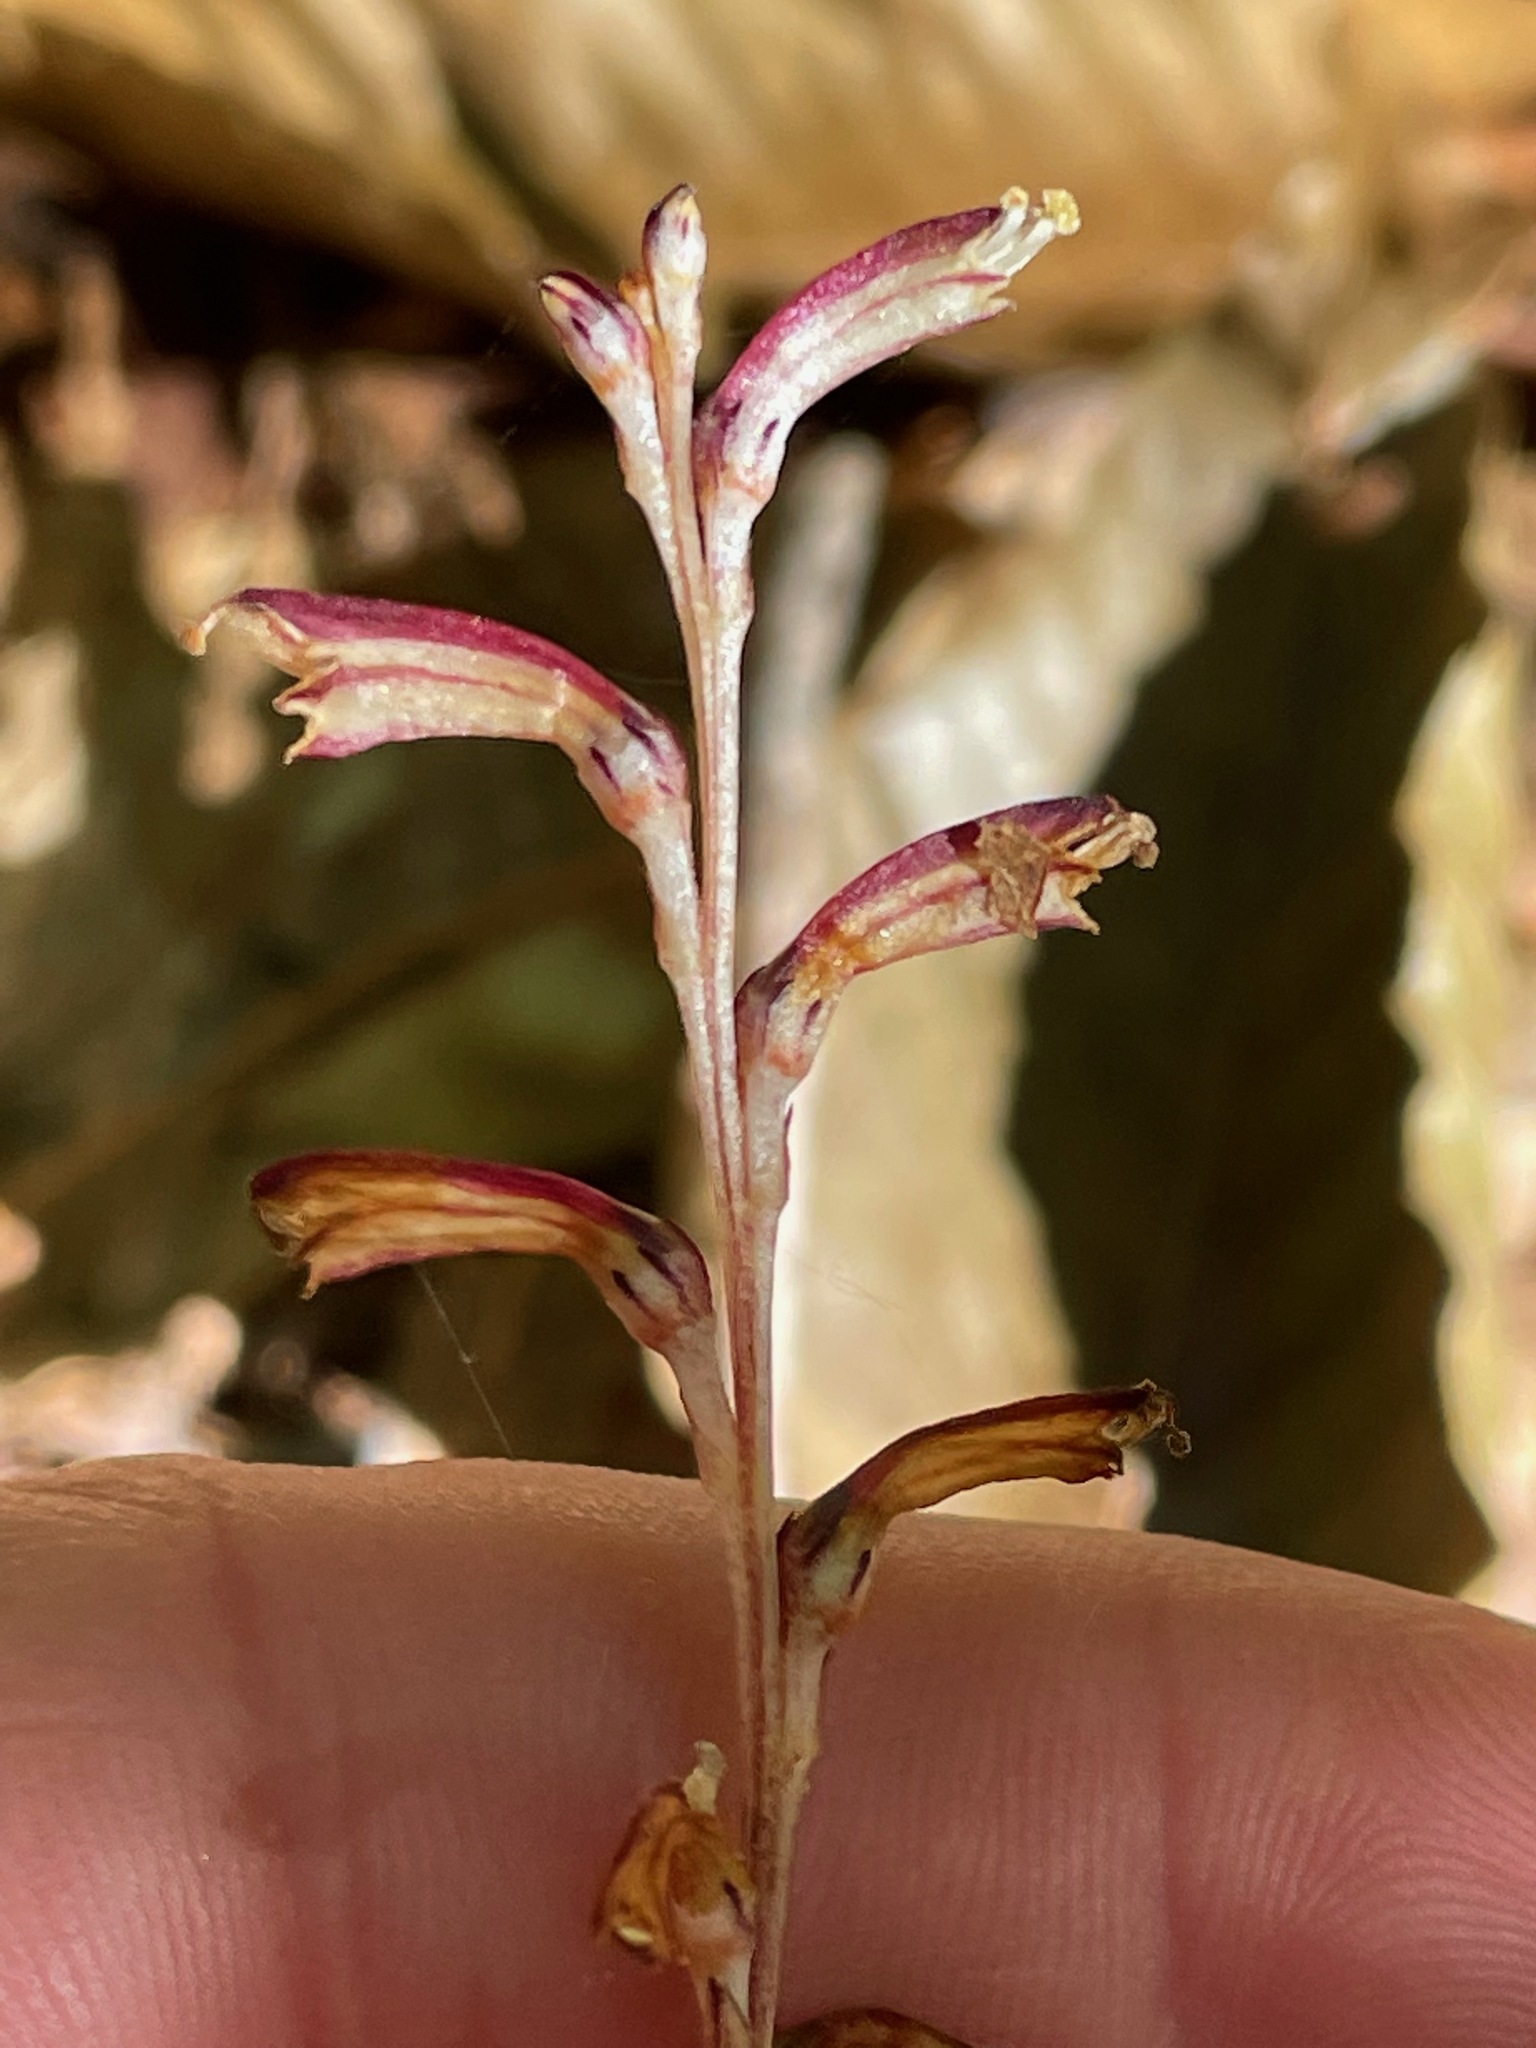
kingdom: Plantae
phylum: Tracheophyta
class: Magnoliopsida
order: Lamiales
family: Orobanchaceae
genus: Epifagus
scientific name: Epifagus virginiana
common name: Beechdrops
